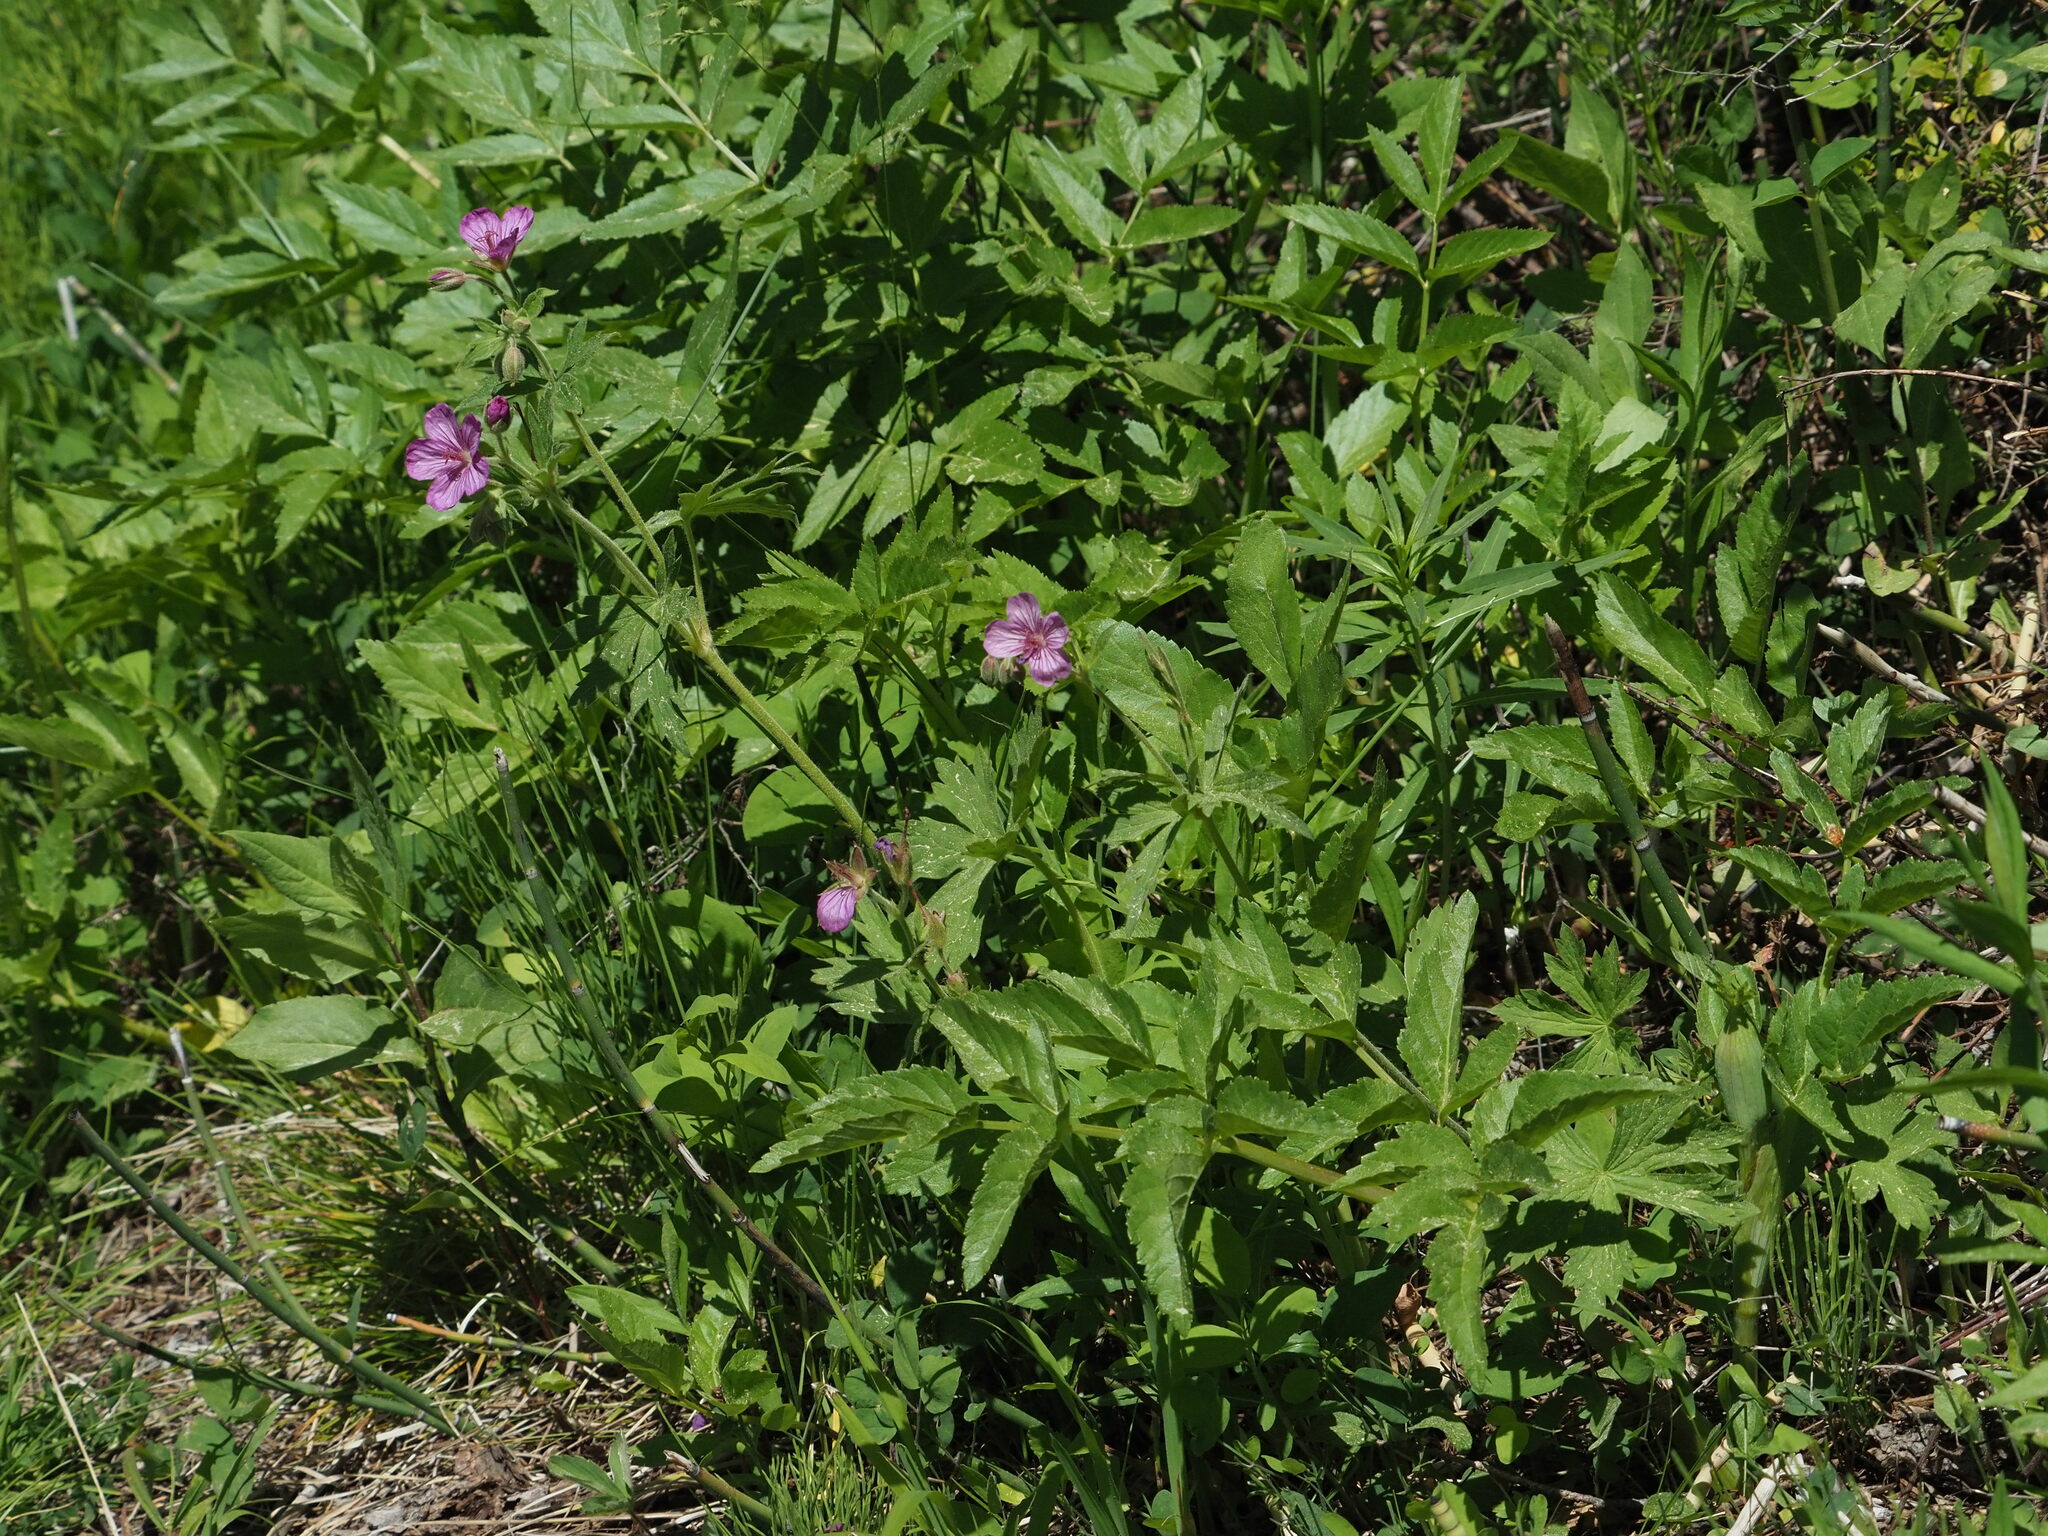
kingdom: Plantae
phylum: Tracheophyta
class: Magnoliopsida
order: Geraniales
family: Geraniaceae
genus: Geranium
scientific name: Geranium viscosissimum
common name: Purple geranium
